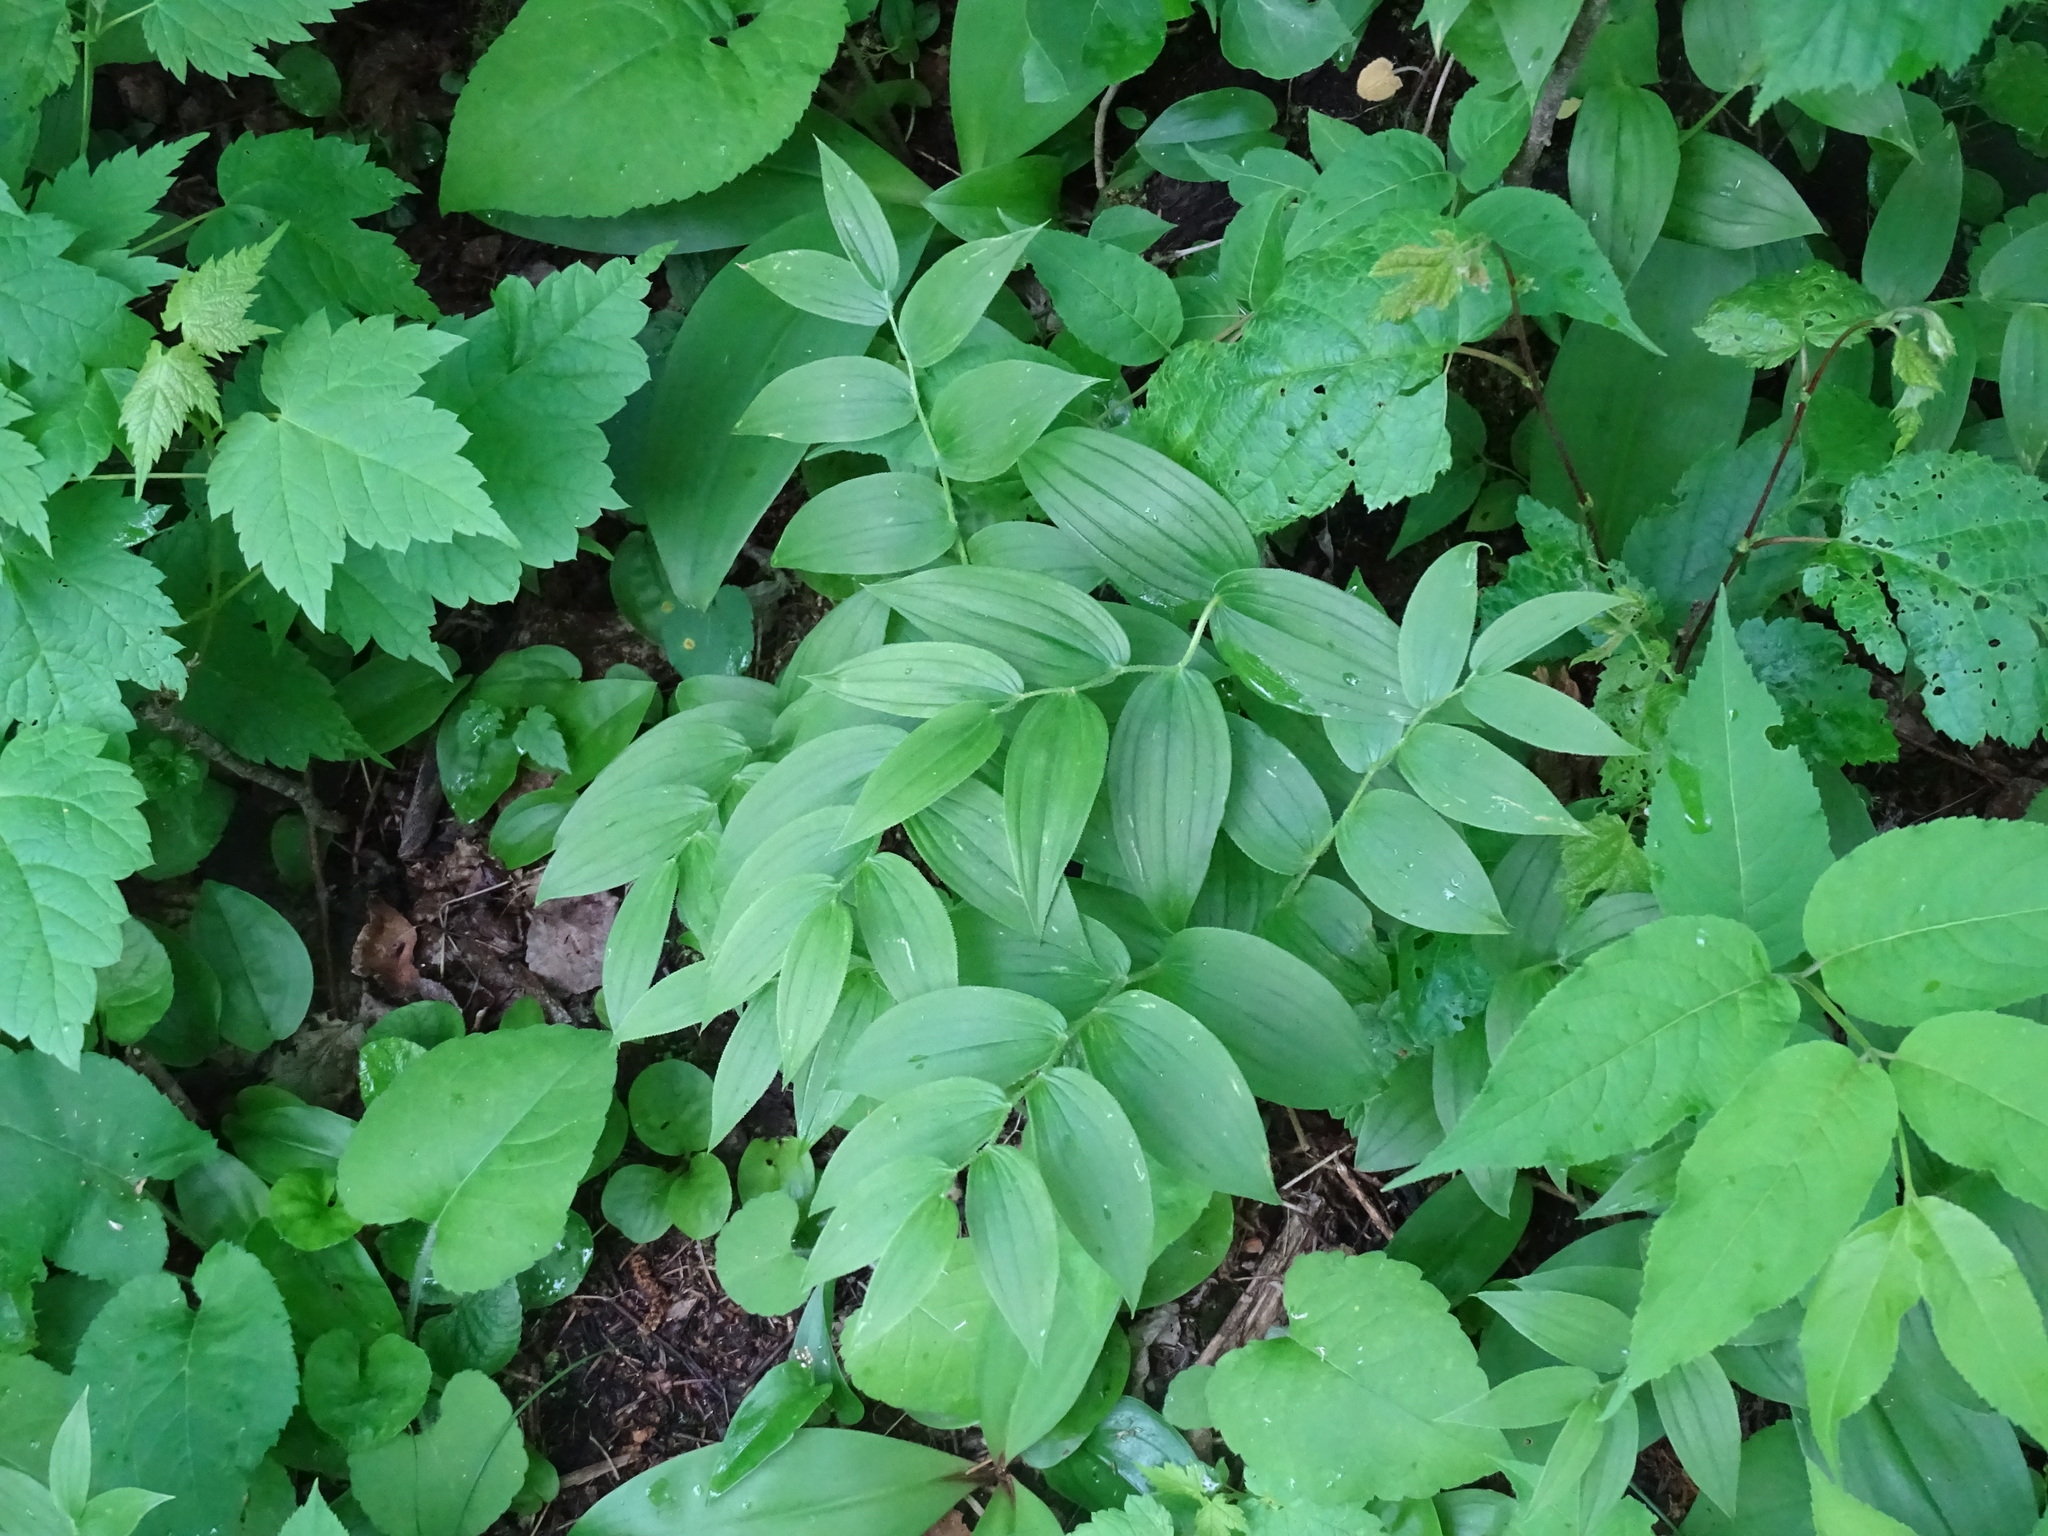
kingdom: Plantae
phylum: Tracheophyta
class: Liliopsida
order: Liliales
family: Liliaceae
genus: Streptopus
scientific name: Streptopus lanceolatus
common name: Rose mandarin
